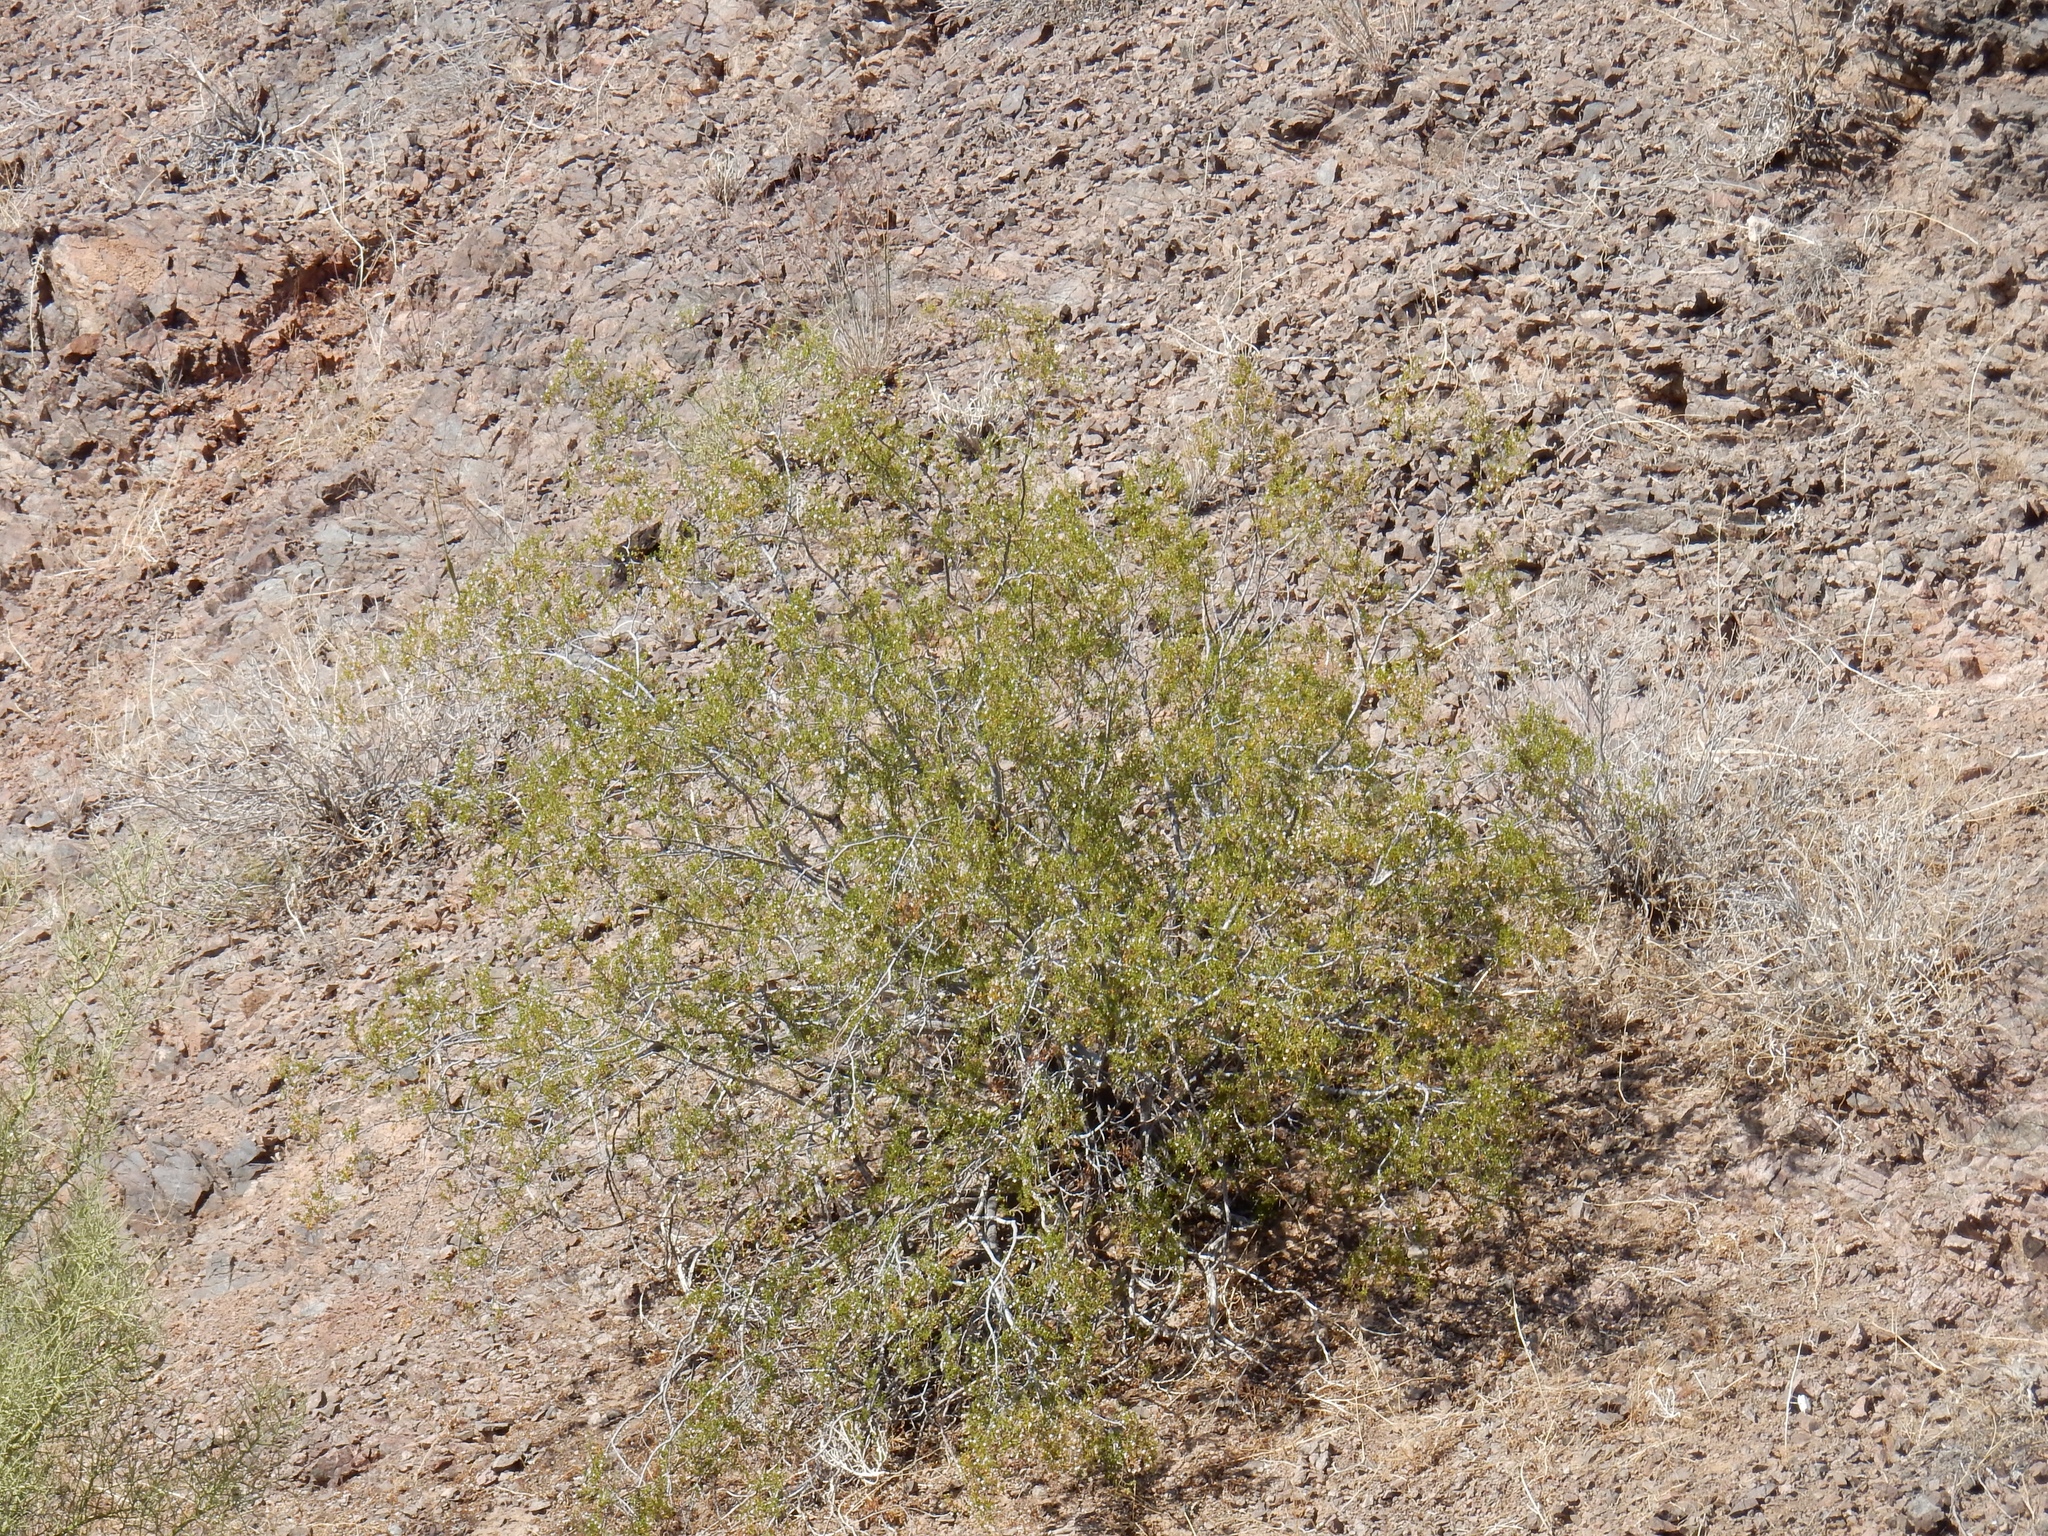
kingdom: Plantae
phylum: Tracheophyta
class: Magnoliopsida
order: Zygophyllales
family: Zygophyllaceae
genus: Larrea
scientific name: Larrea tridentata
